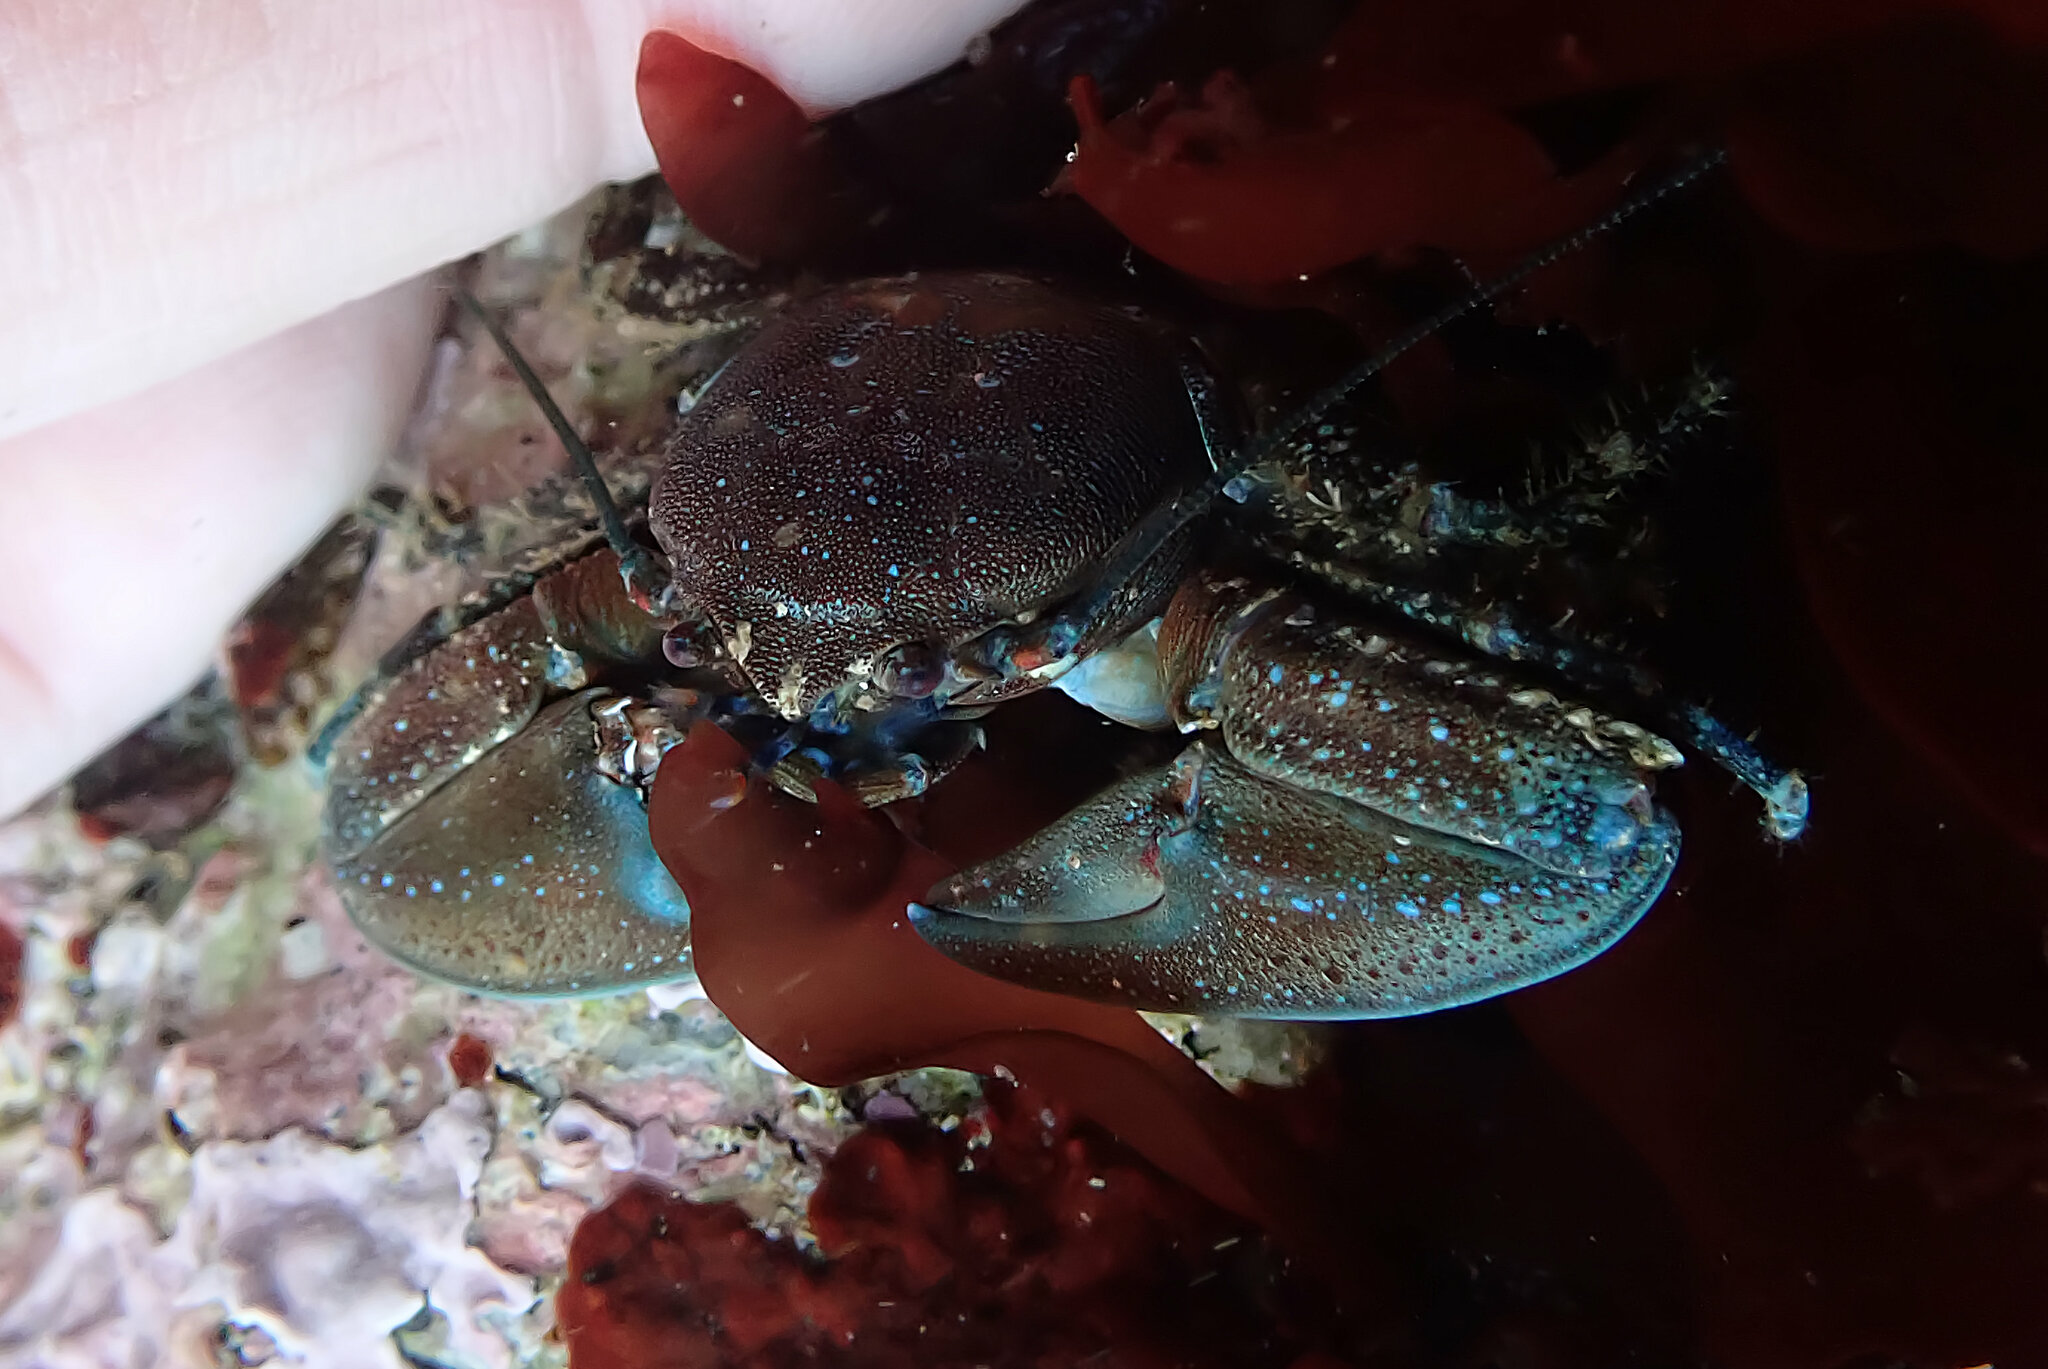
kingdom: Animalia
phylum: Arthropoda
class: Malacostraca
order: Decapoda
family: Porcellanidae
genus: Petrolisthes
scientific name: Petrolisthes manimaculis
